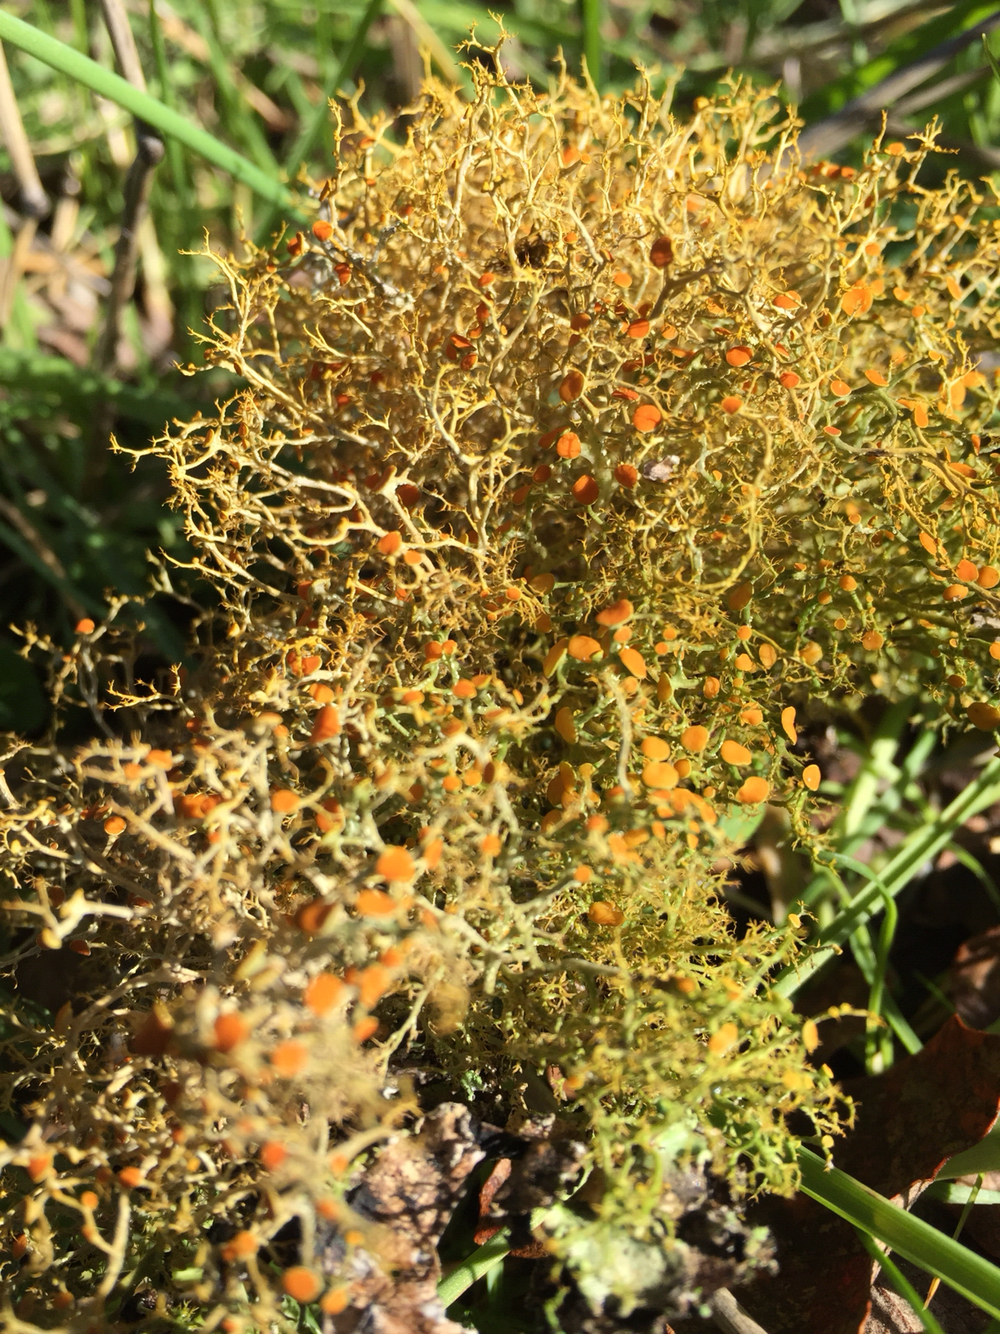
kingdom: Fungi
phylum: Ascomycota
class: Lecanoromycetes
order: Teloschistales
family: Teloschistaceae
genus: Teloschistes
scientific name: Teloschistes flavicans
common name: Golden hair-lichen
